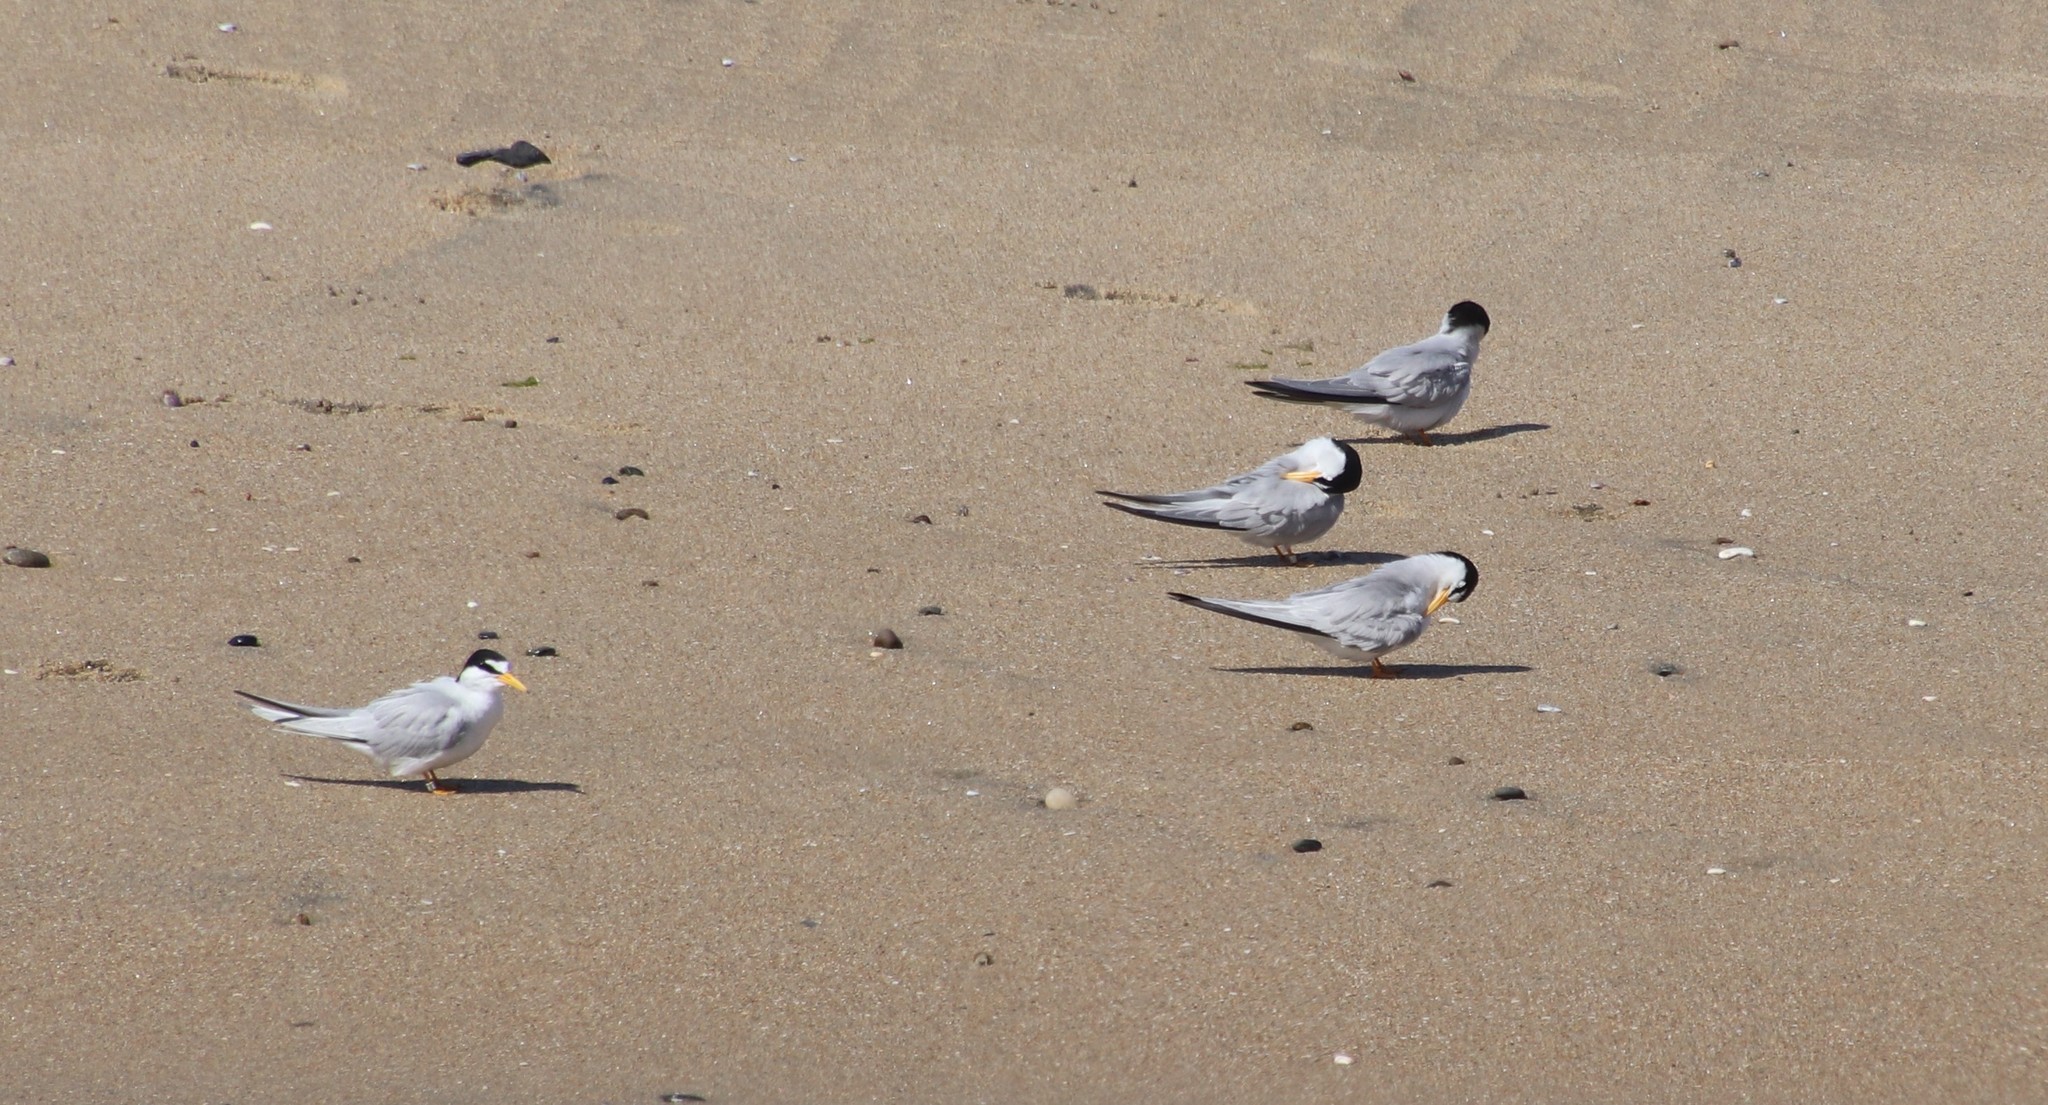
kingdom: Animalia
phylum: Chordata
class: Aves
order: Charadriiformes
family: Laridae
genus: Sternula
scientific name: Sternula antillarum
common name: Least tern
